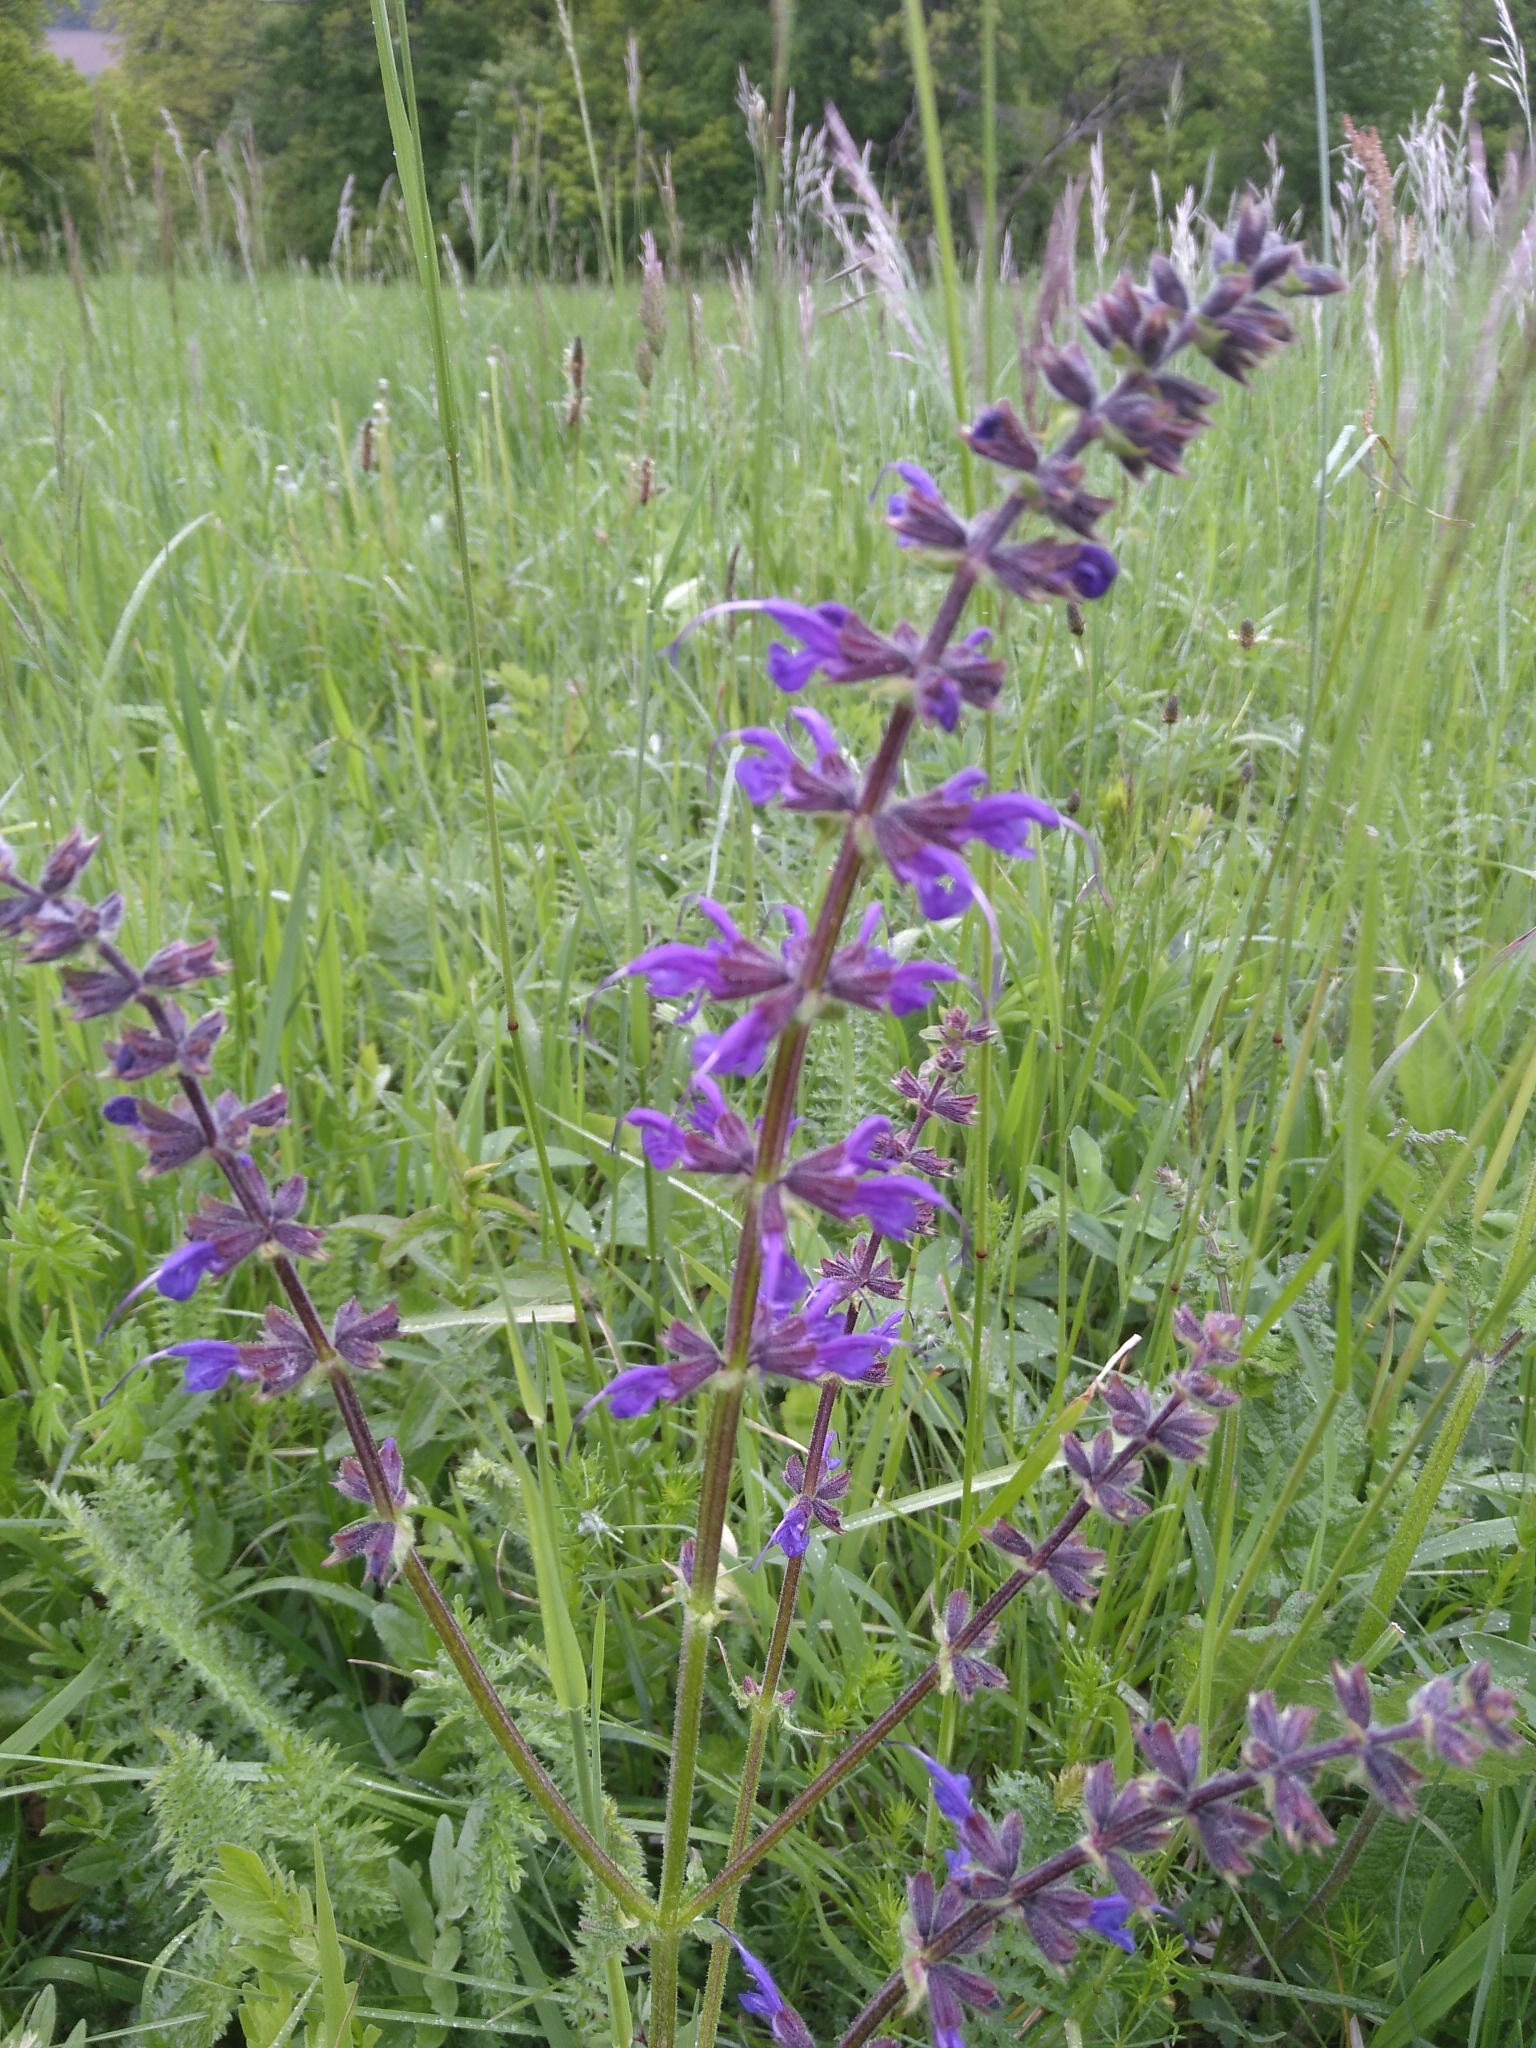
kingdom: Plantae
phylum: Tracheophyta
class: Magnoliopsida
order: Lamiales
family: Lamiaceae
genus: Salvia
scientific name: Salvia pratensis
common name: Meadow sage
